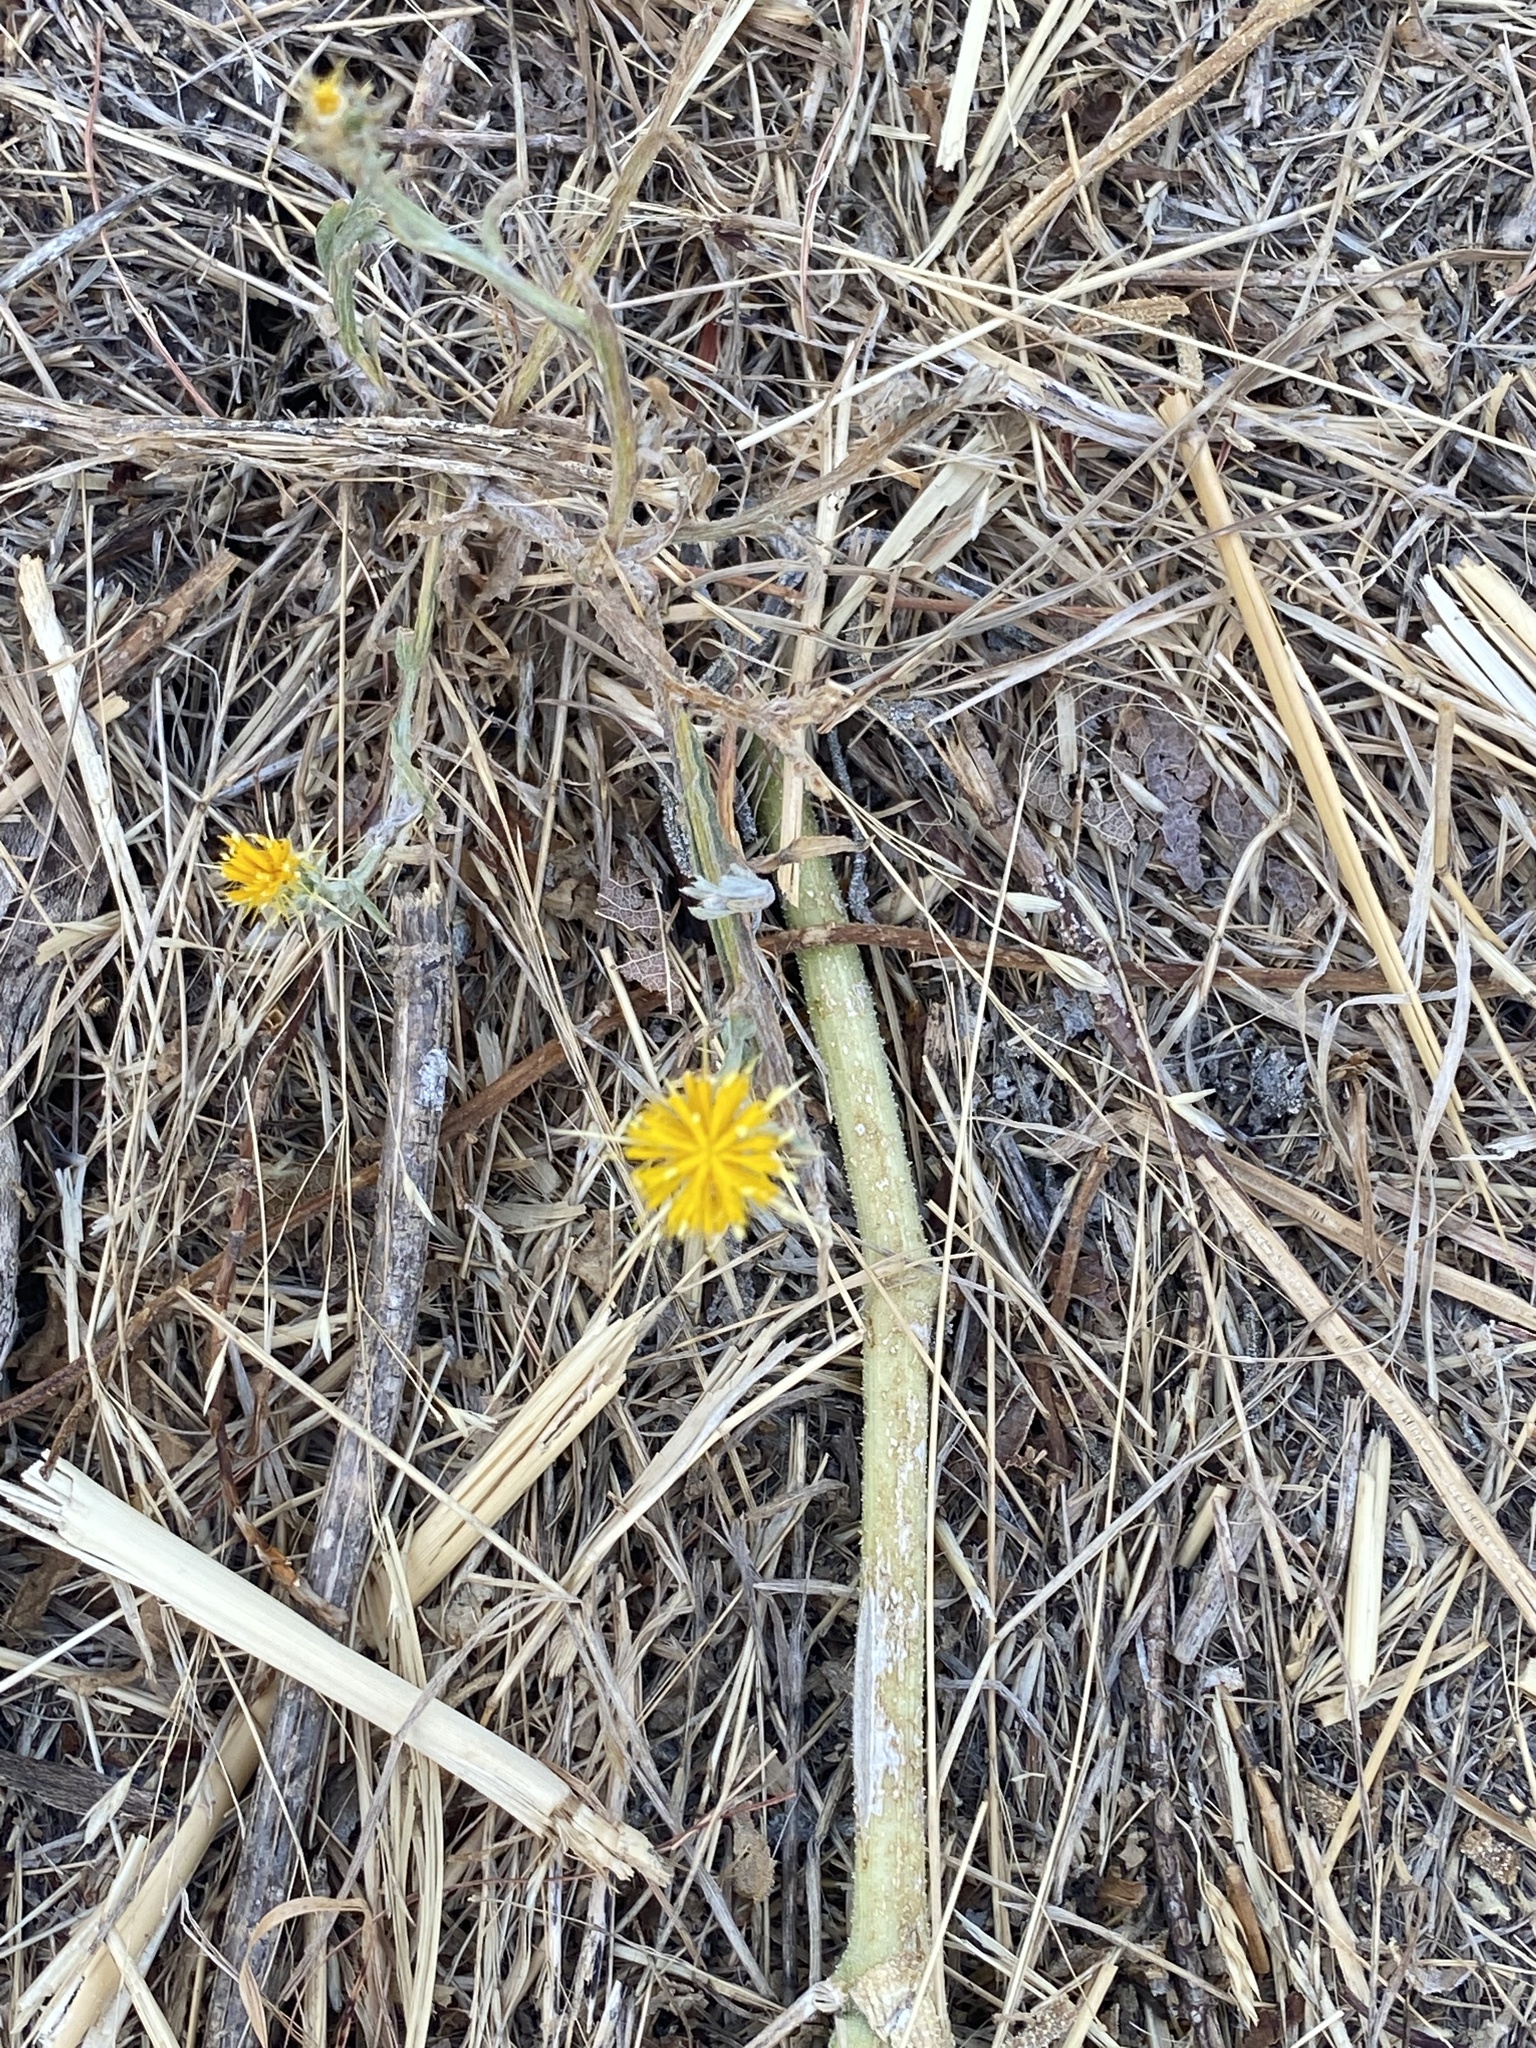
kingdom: Plantae
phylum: Tracheophyta
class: Magnoliopsida
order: Asterales
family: Asteraceae
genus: Centaurea
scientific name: Centaurea solstitialis
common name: Yellow star-thistle
